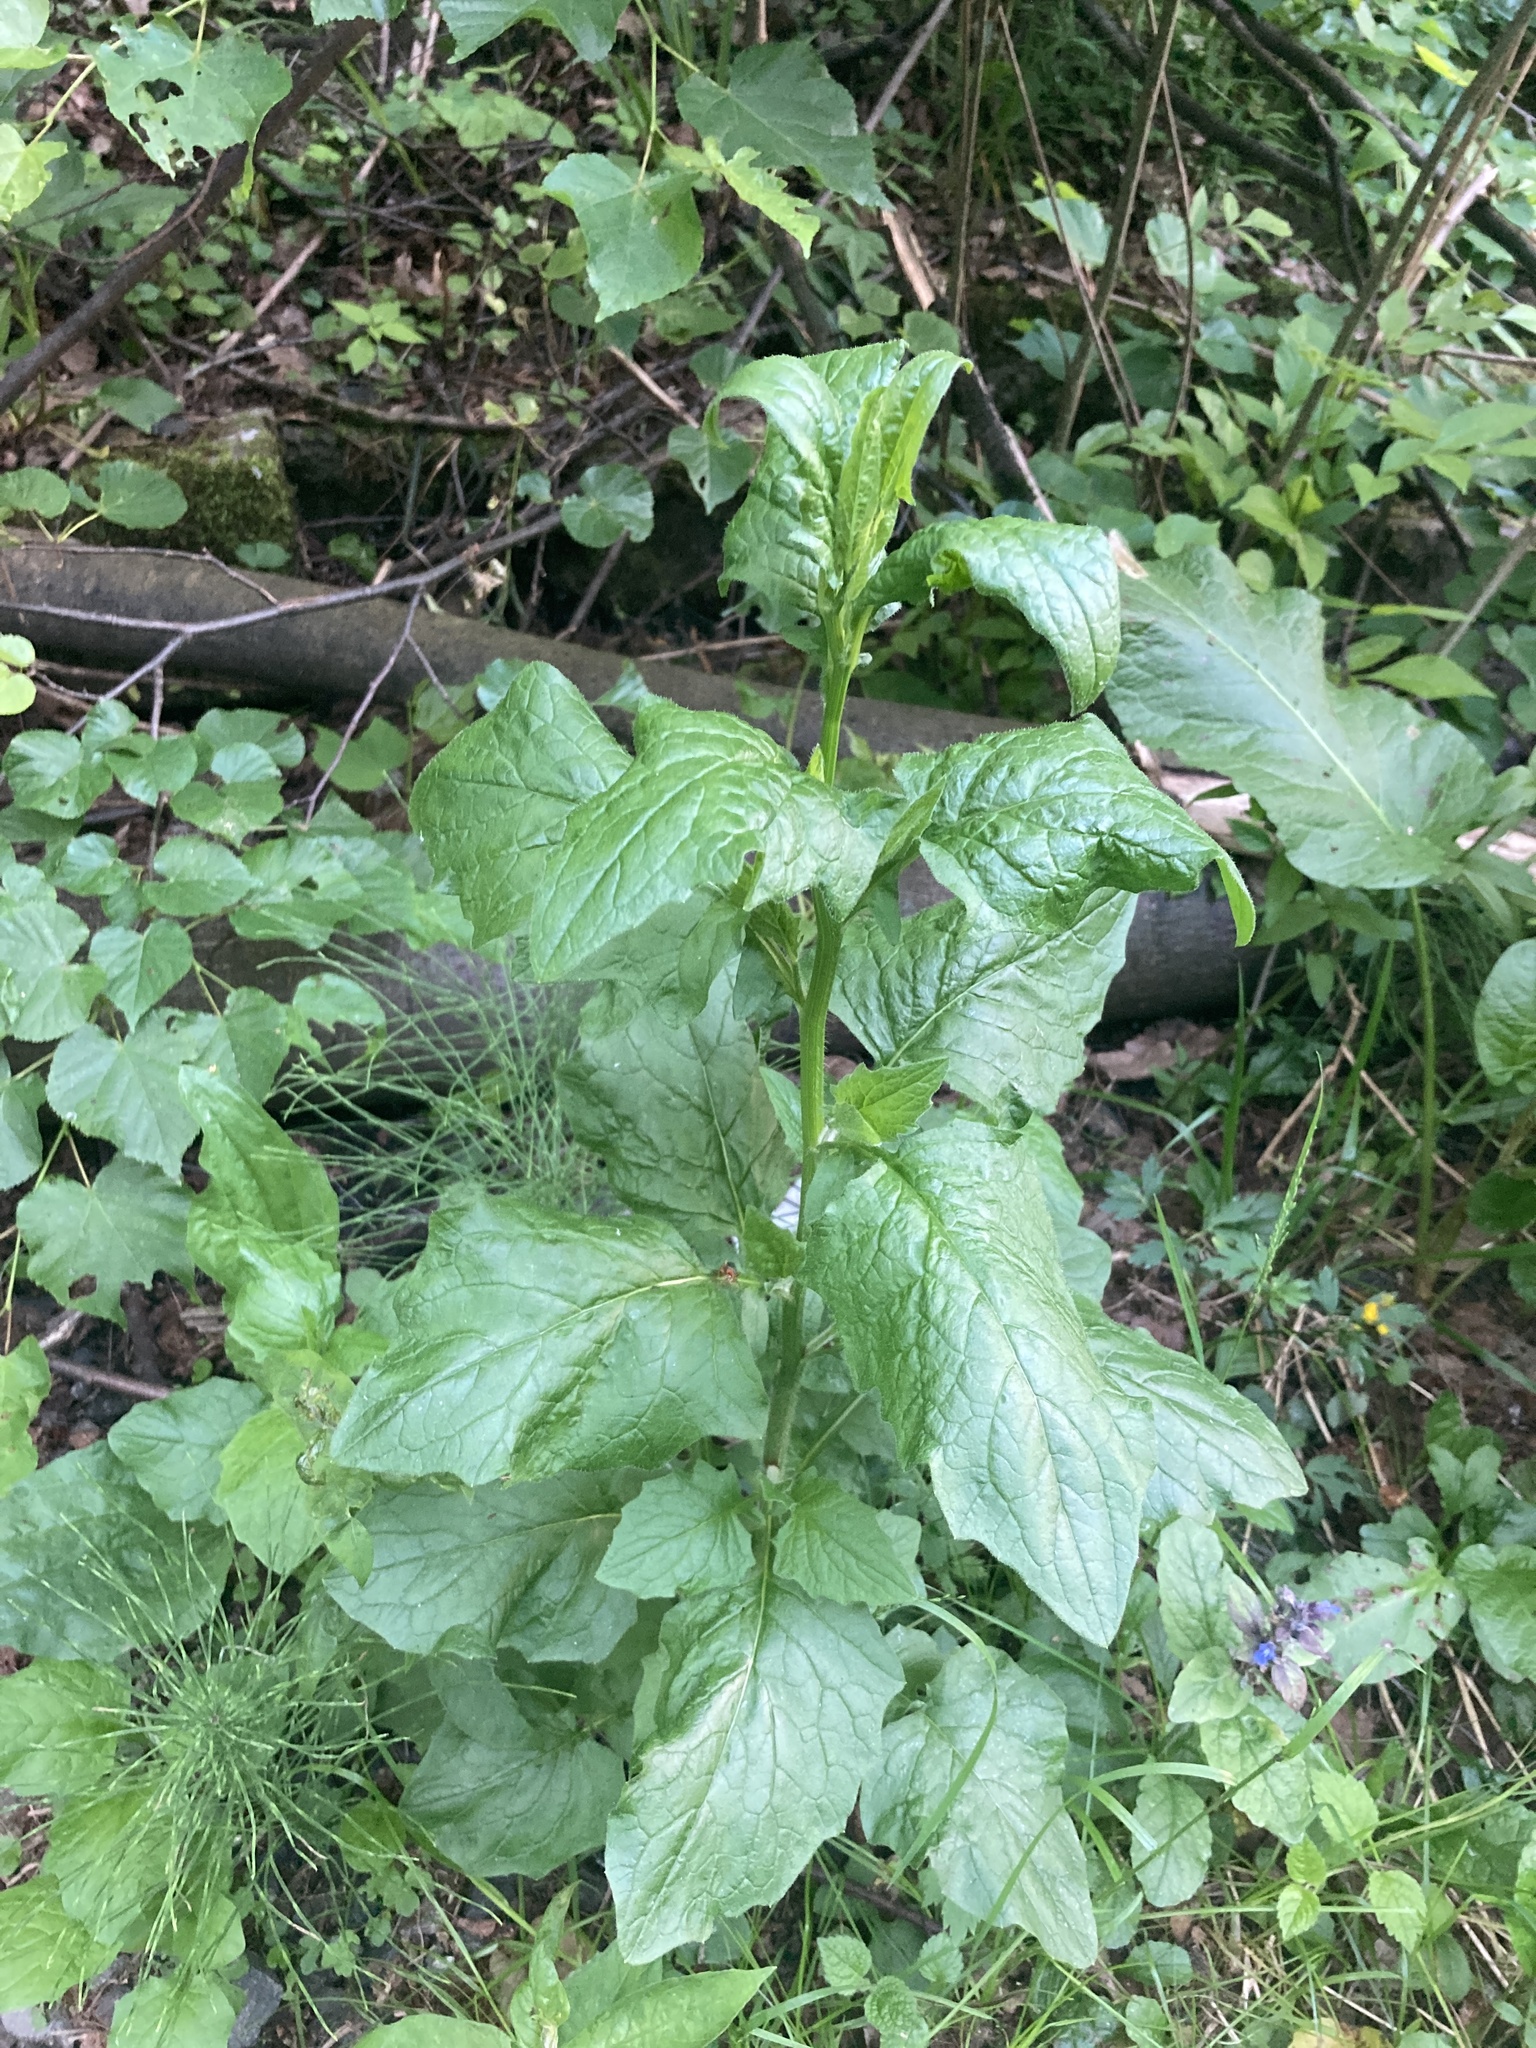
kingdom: Plantae
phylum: Tracheophyta
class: Magnoliopsida
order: Asterales
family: Asteraceae
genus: Lapsana
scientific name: Lapsana communis
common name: Nipplewort
